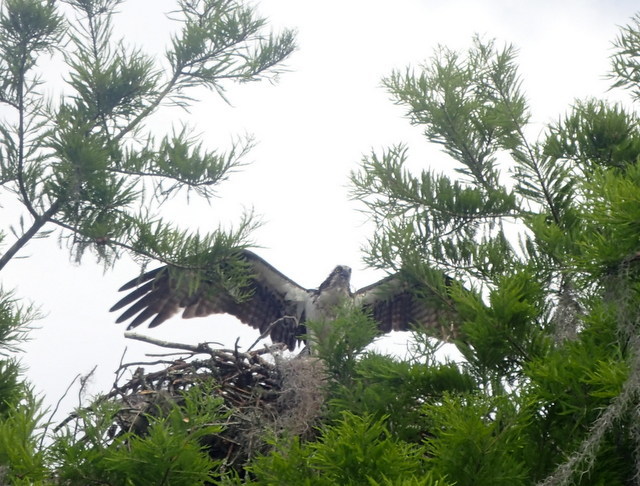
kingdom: Animalia
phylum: Chordata
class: Aves
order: Accipitriformes
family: Pandionidae
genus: Pandion
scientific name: Pandion haliaetus
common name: Osprey
